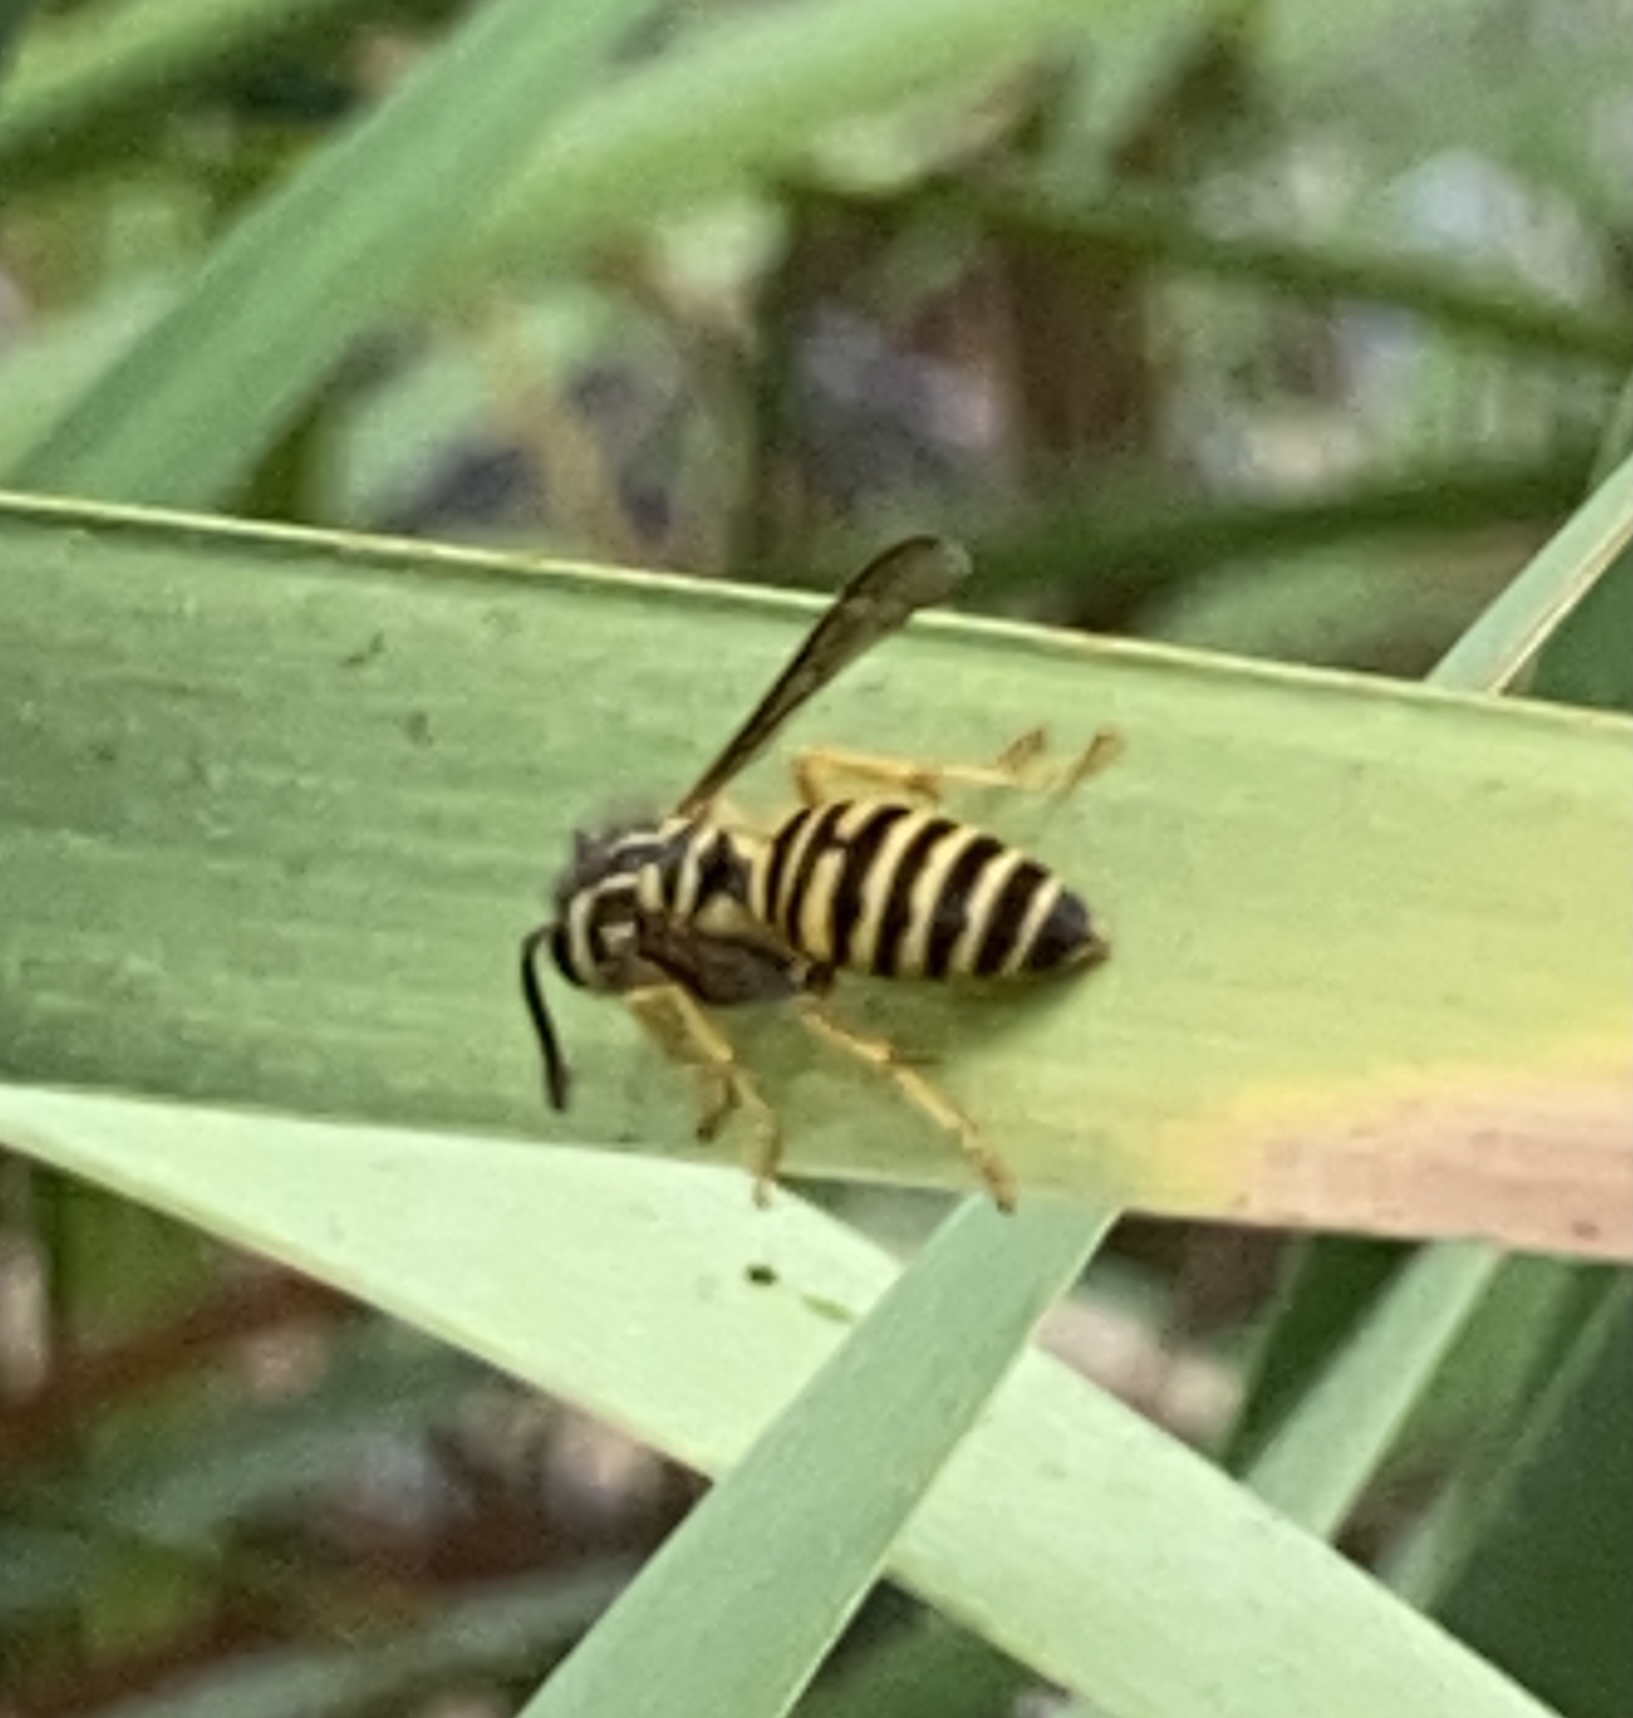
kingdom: Animalia
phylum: Arthropoda
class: Insecta
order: Hymenoptera
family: Vespidae
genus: Vespula
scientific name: Vespula squamosa
